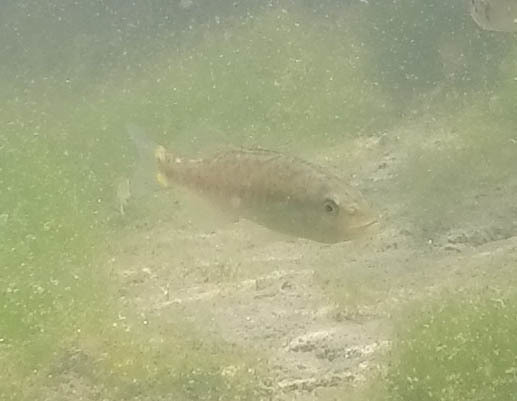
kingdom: Animalia
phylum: Chordata
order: Perciformes
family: Centrarchidae
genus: Micropterus
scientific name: Micropterus dolomieu
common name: Smallmouth bass
